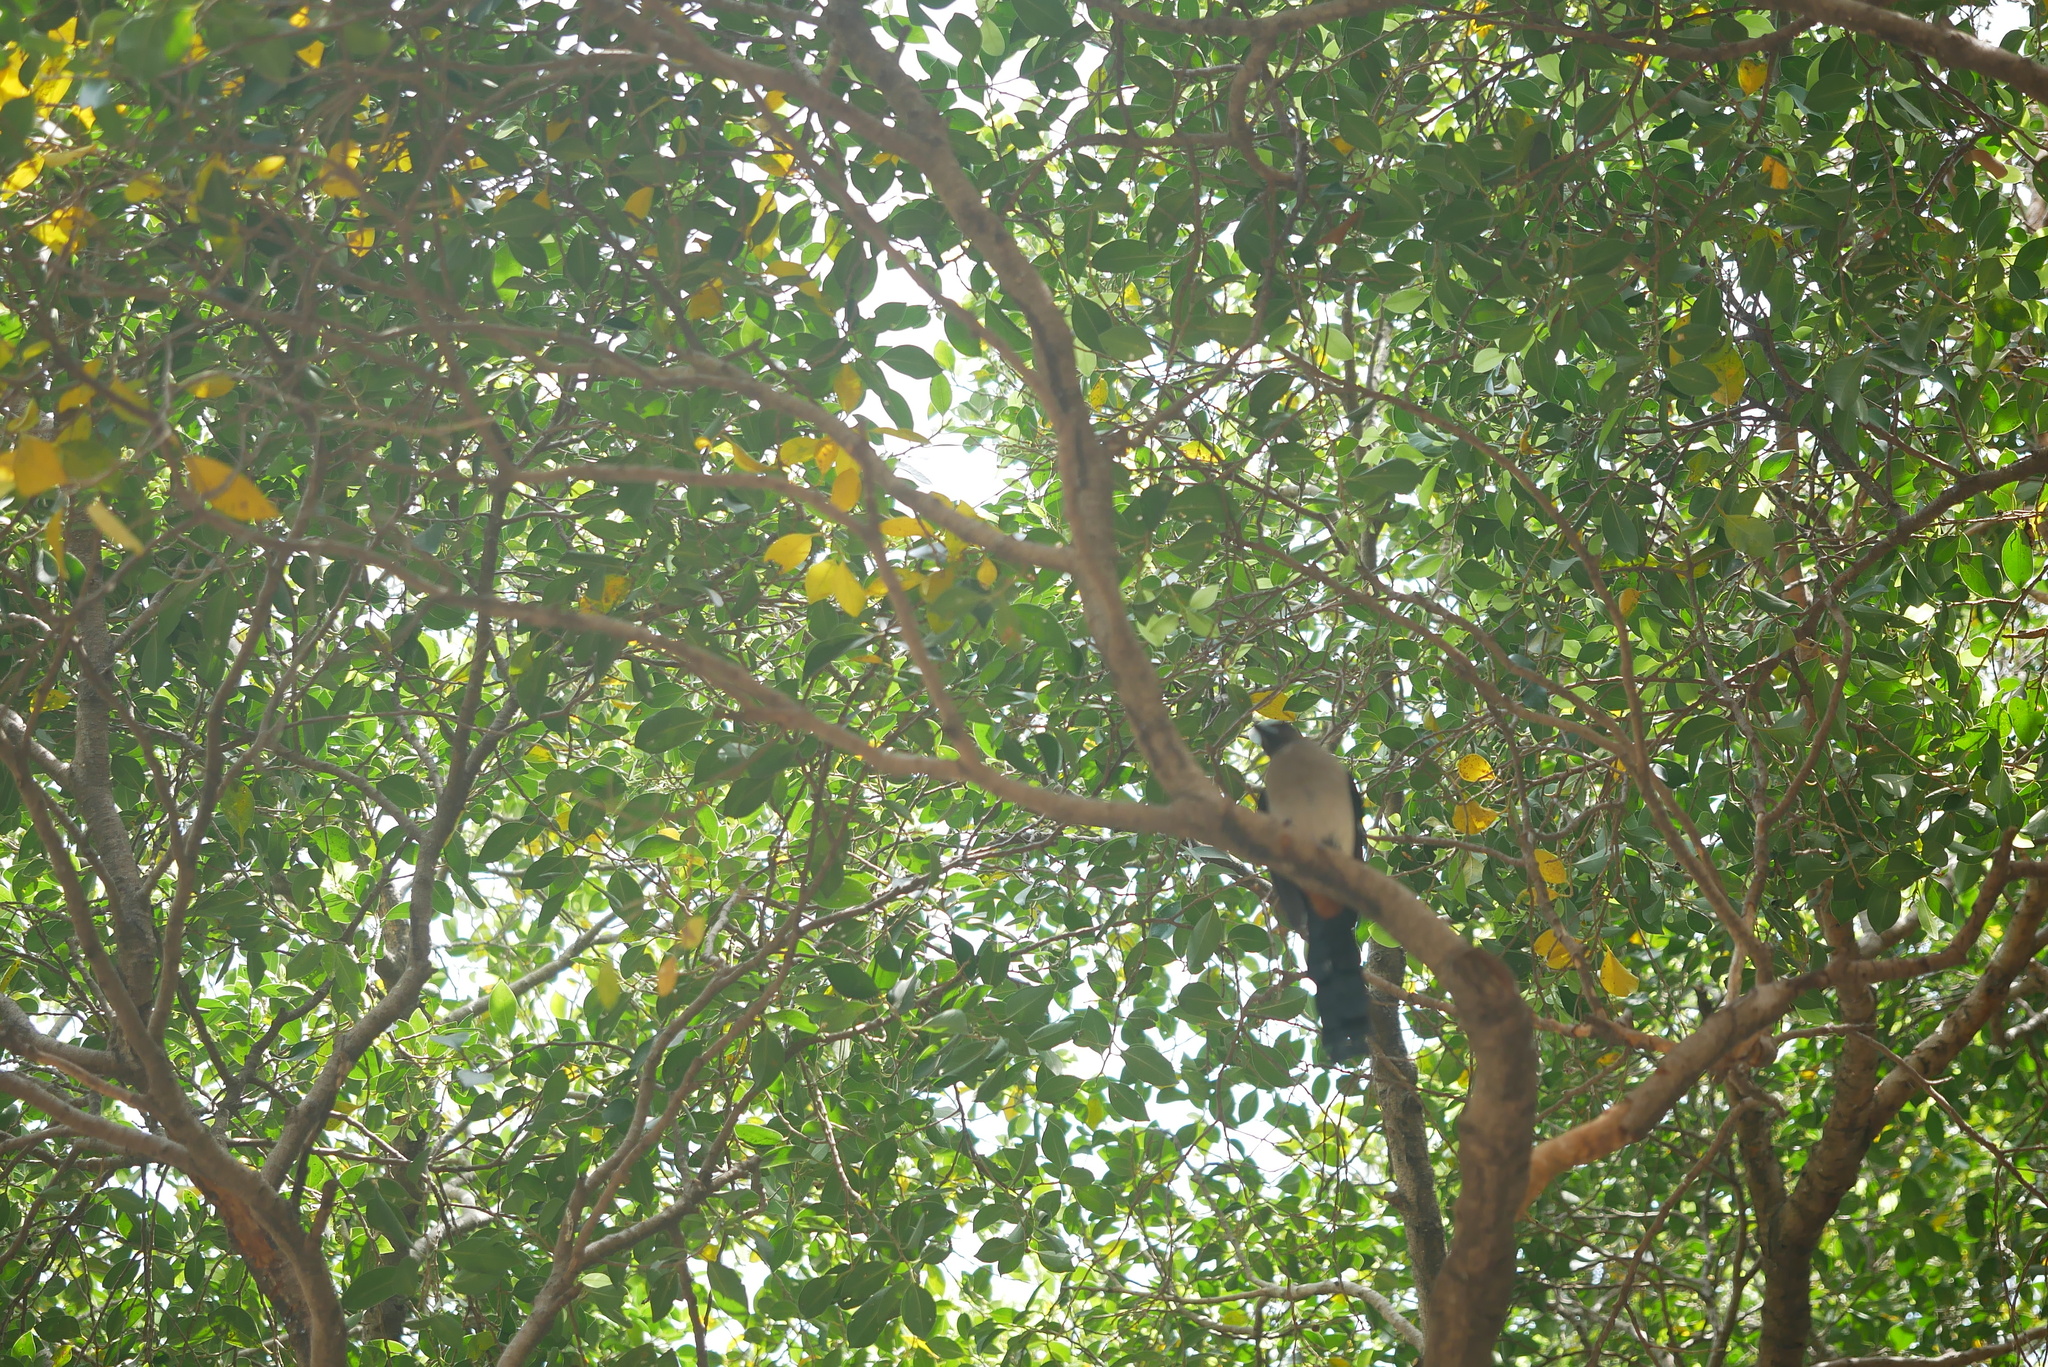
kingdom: Animalia
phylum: Chordata
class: Aves
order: Passeriformes
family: Corvidae
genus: Dendrocitta
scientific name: Dendrocitta formosae
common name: Grey treepie
